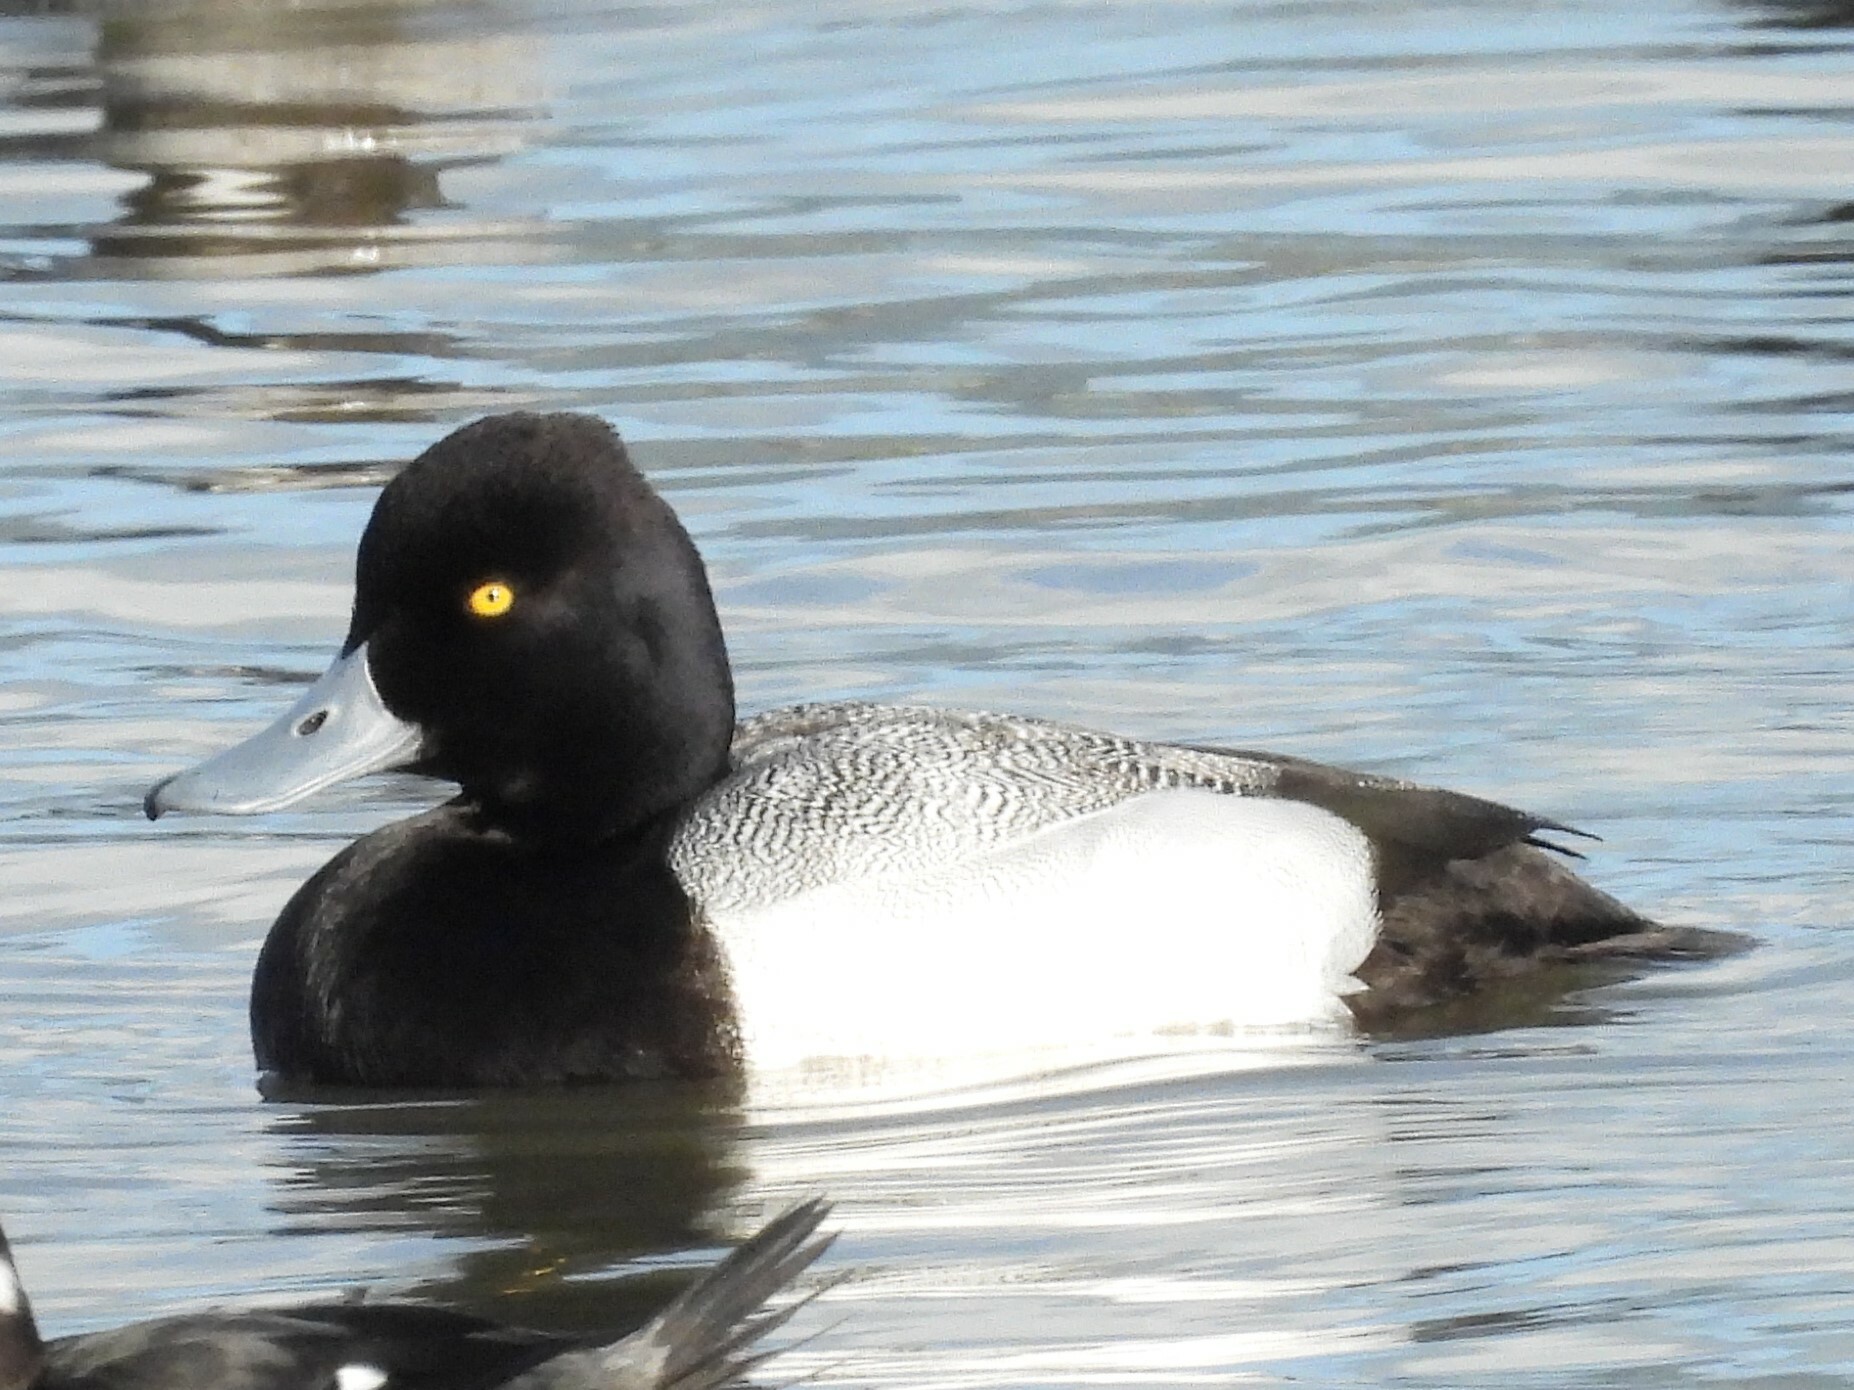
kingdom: Animalia
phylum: Chordata
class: Aves
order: Anseriformes
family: Anatidae
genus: Aythya
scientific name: Aythya affinis
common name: Lesser scaup
